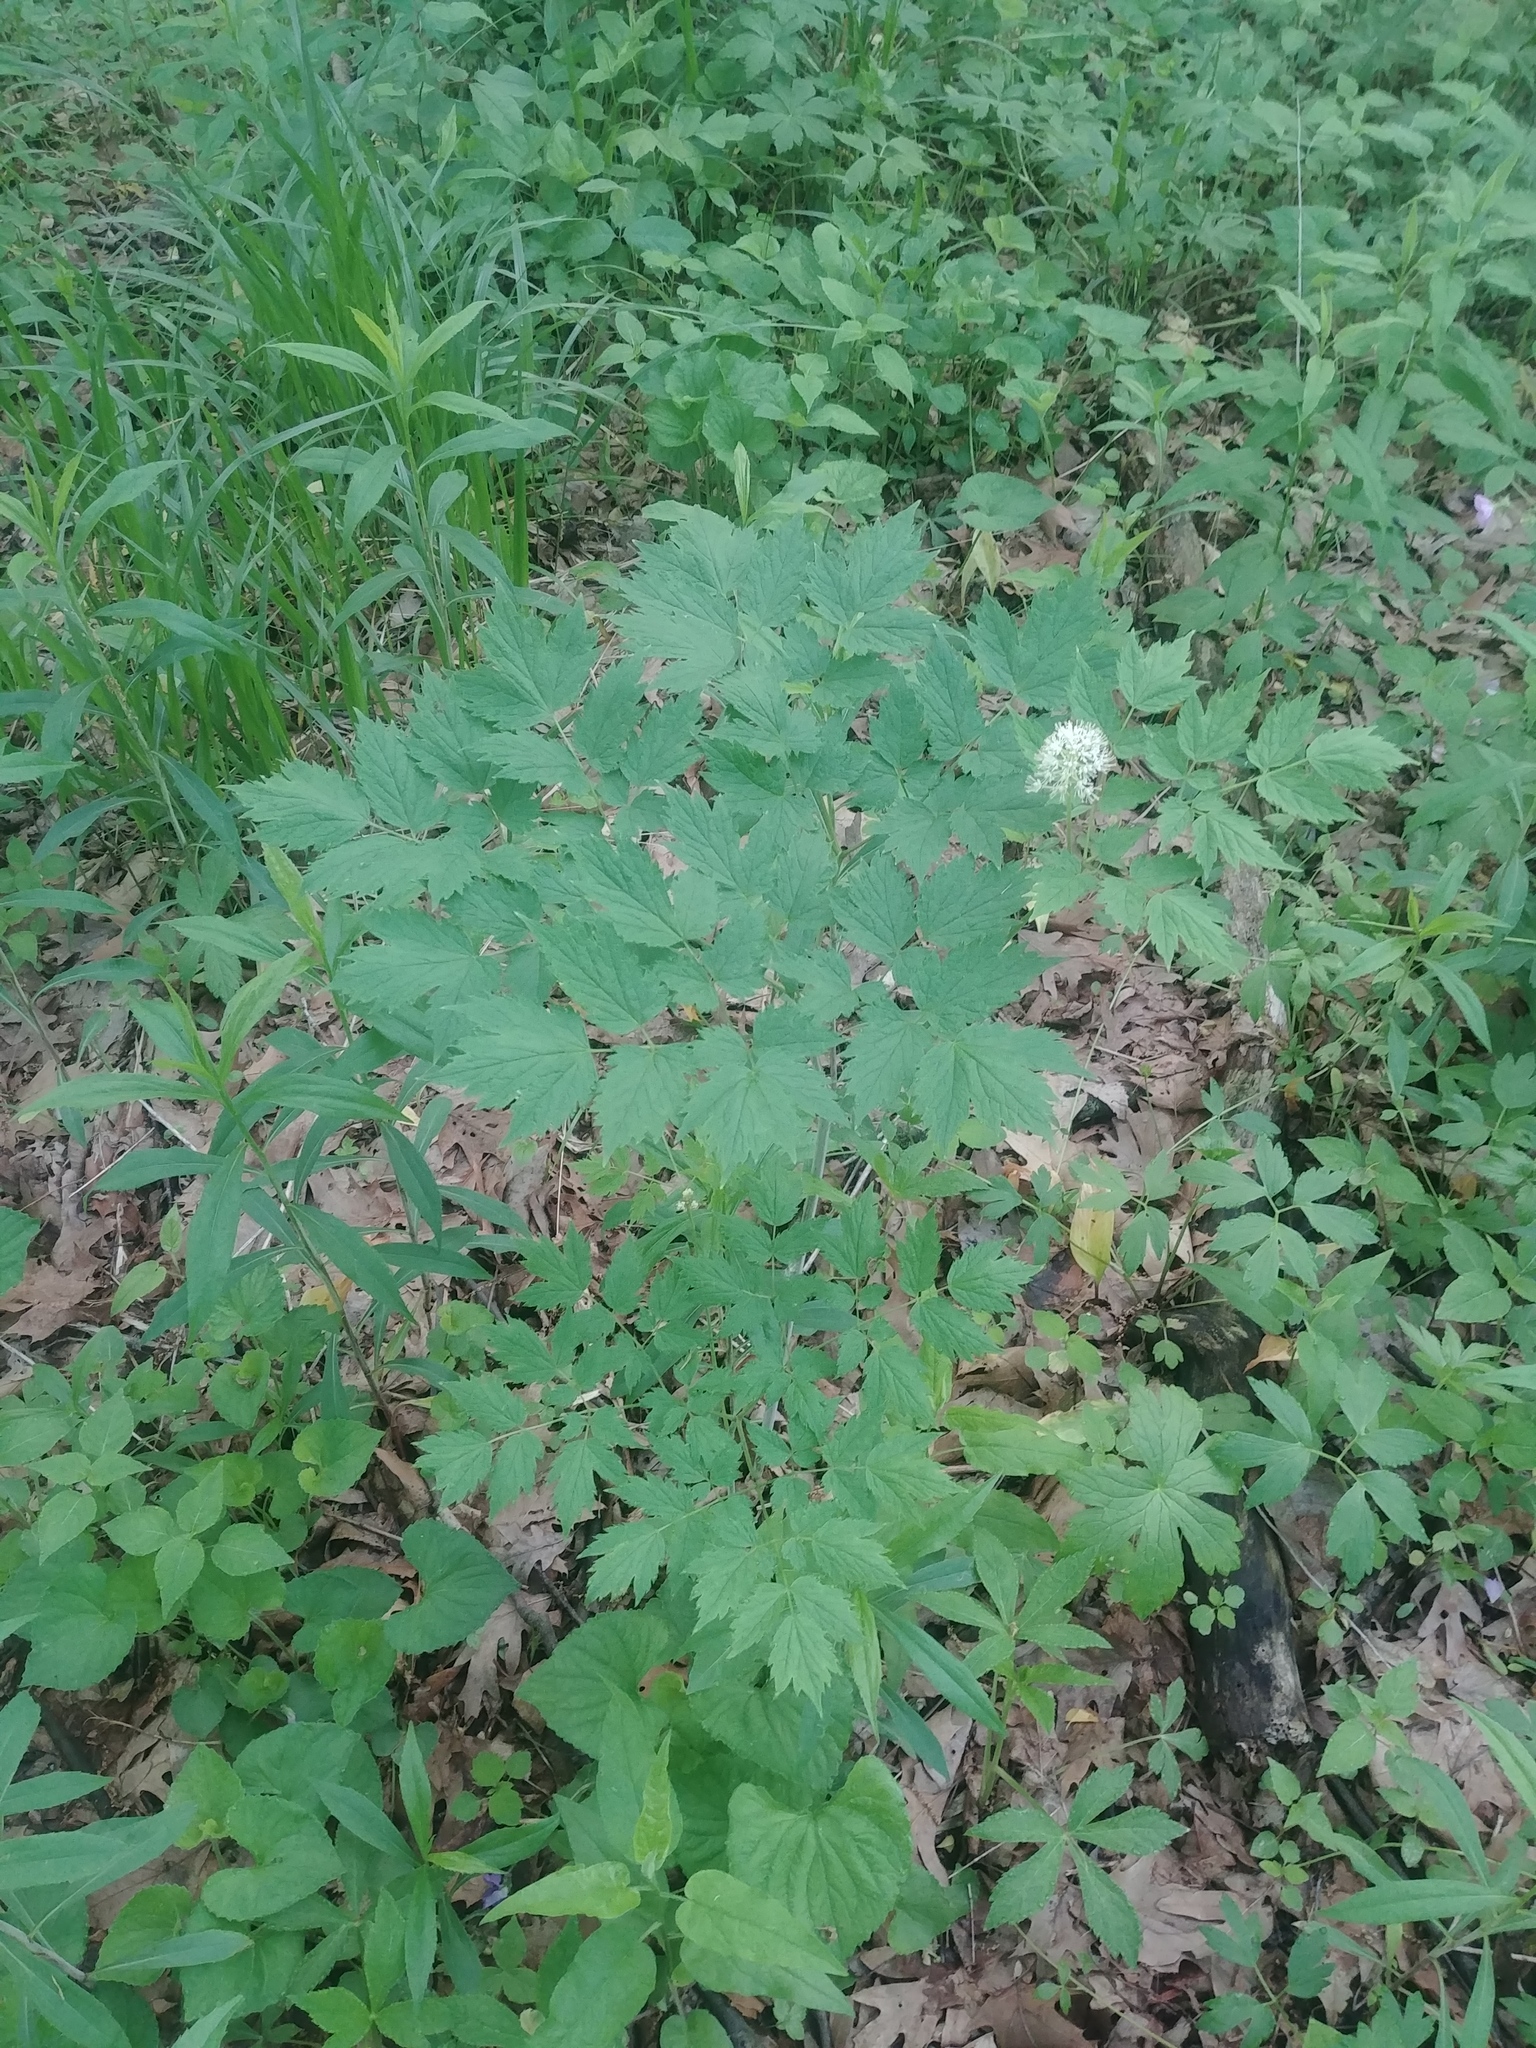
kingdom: Plantae
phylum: Tracheophyta
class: Magnoliopsida
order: Ranunculales
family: Ranunculaceae
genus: Actaea
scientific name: Actaea rubra
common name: Red baneberry
